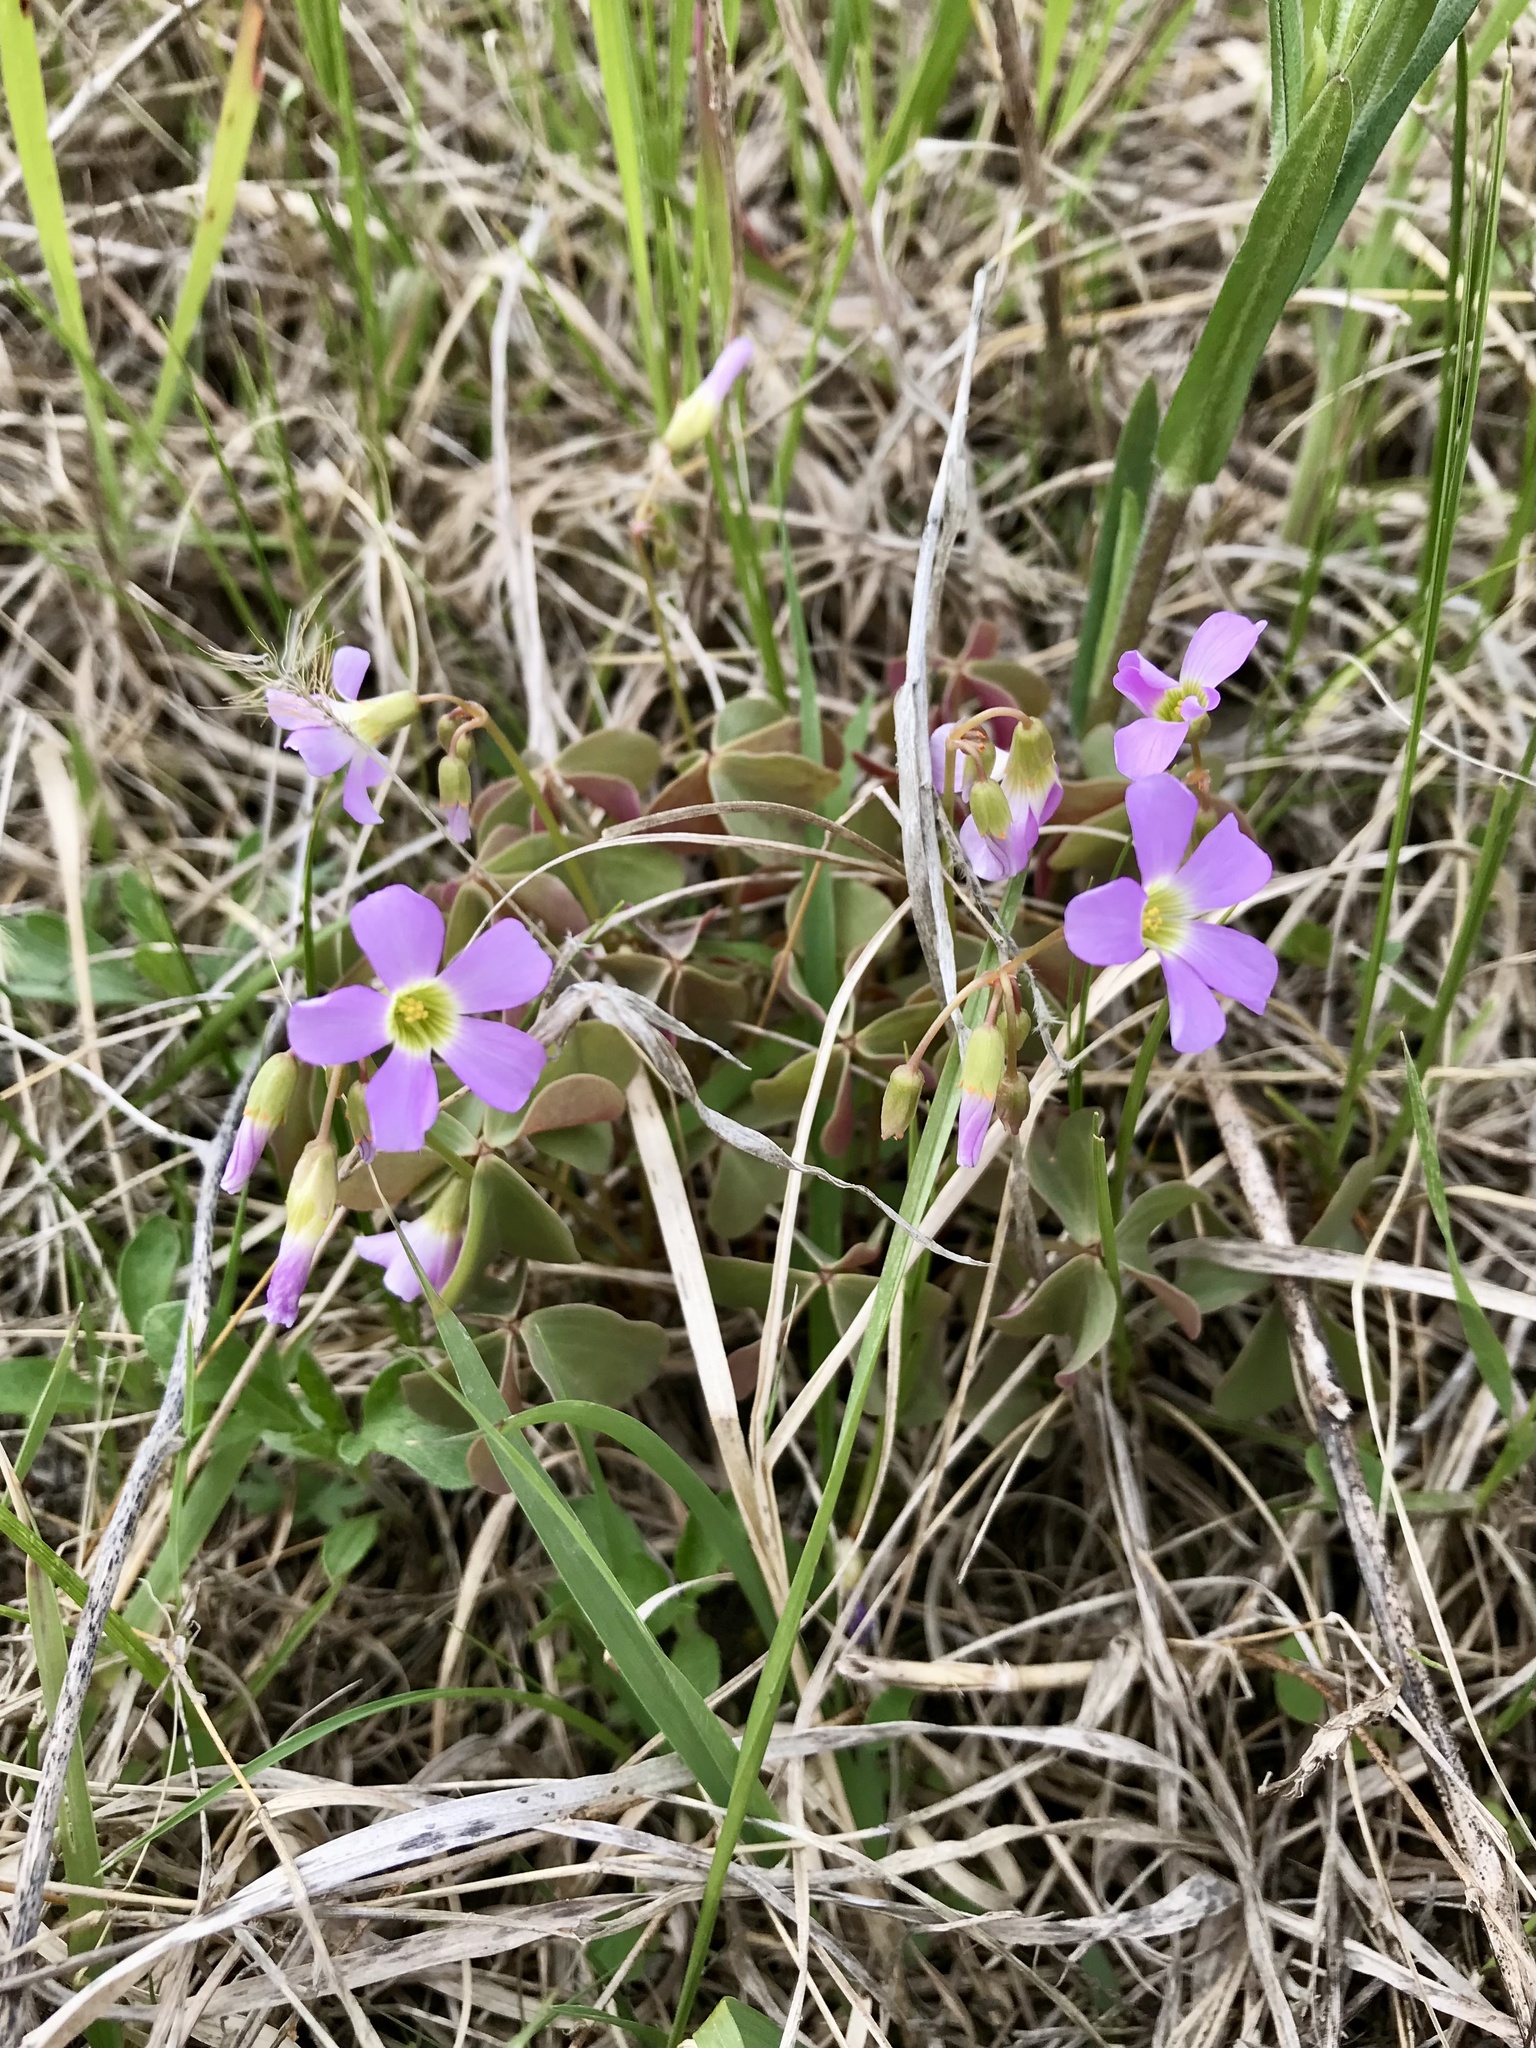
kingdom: Plantae
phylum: Tracheophyta
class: Magnoliopsida
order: Oxalidales
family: Oxalidaceae
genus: Oxalis
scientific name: Oxalis violacea
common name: Violet wood-sorrel
